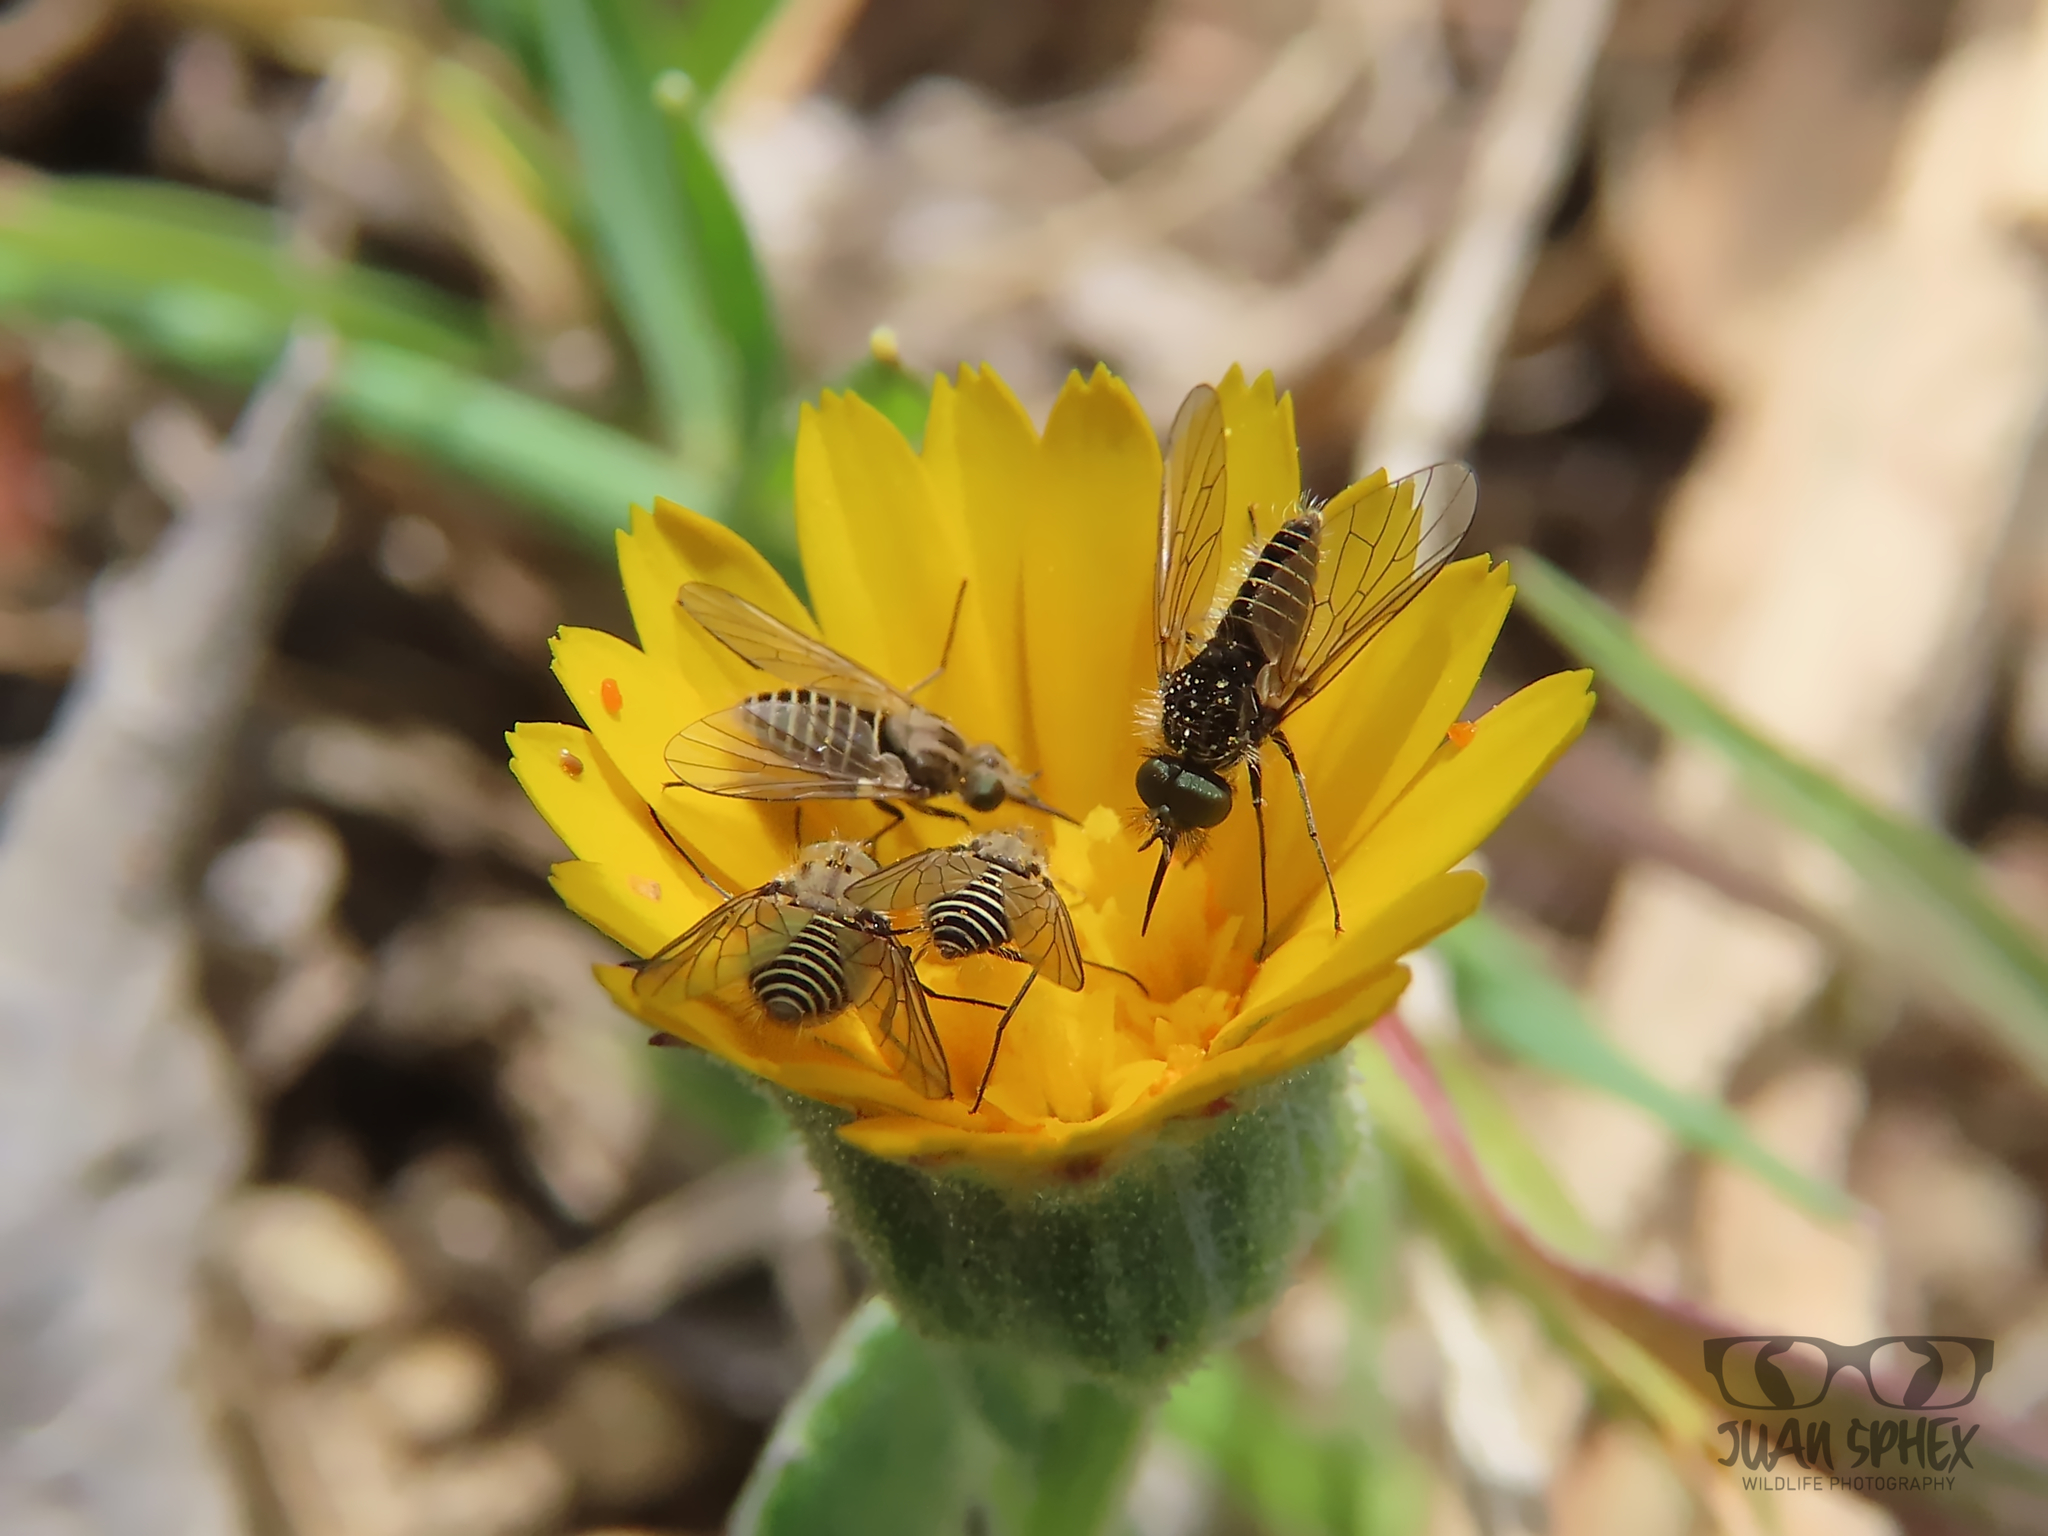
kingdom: Animalia
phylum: Arthropoda
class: Insecta
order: Diptera
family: Bombyliidae
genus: Protypusia
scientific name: Protypusia grata
